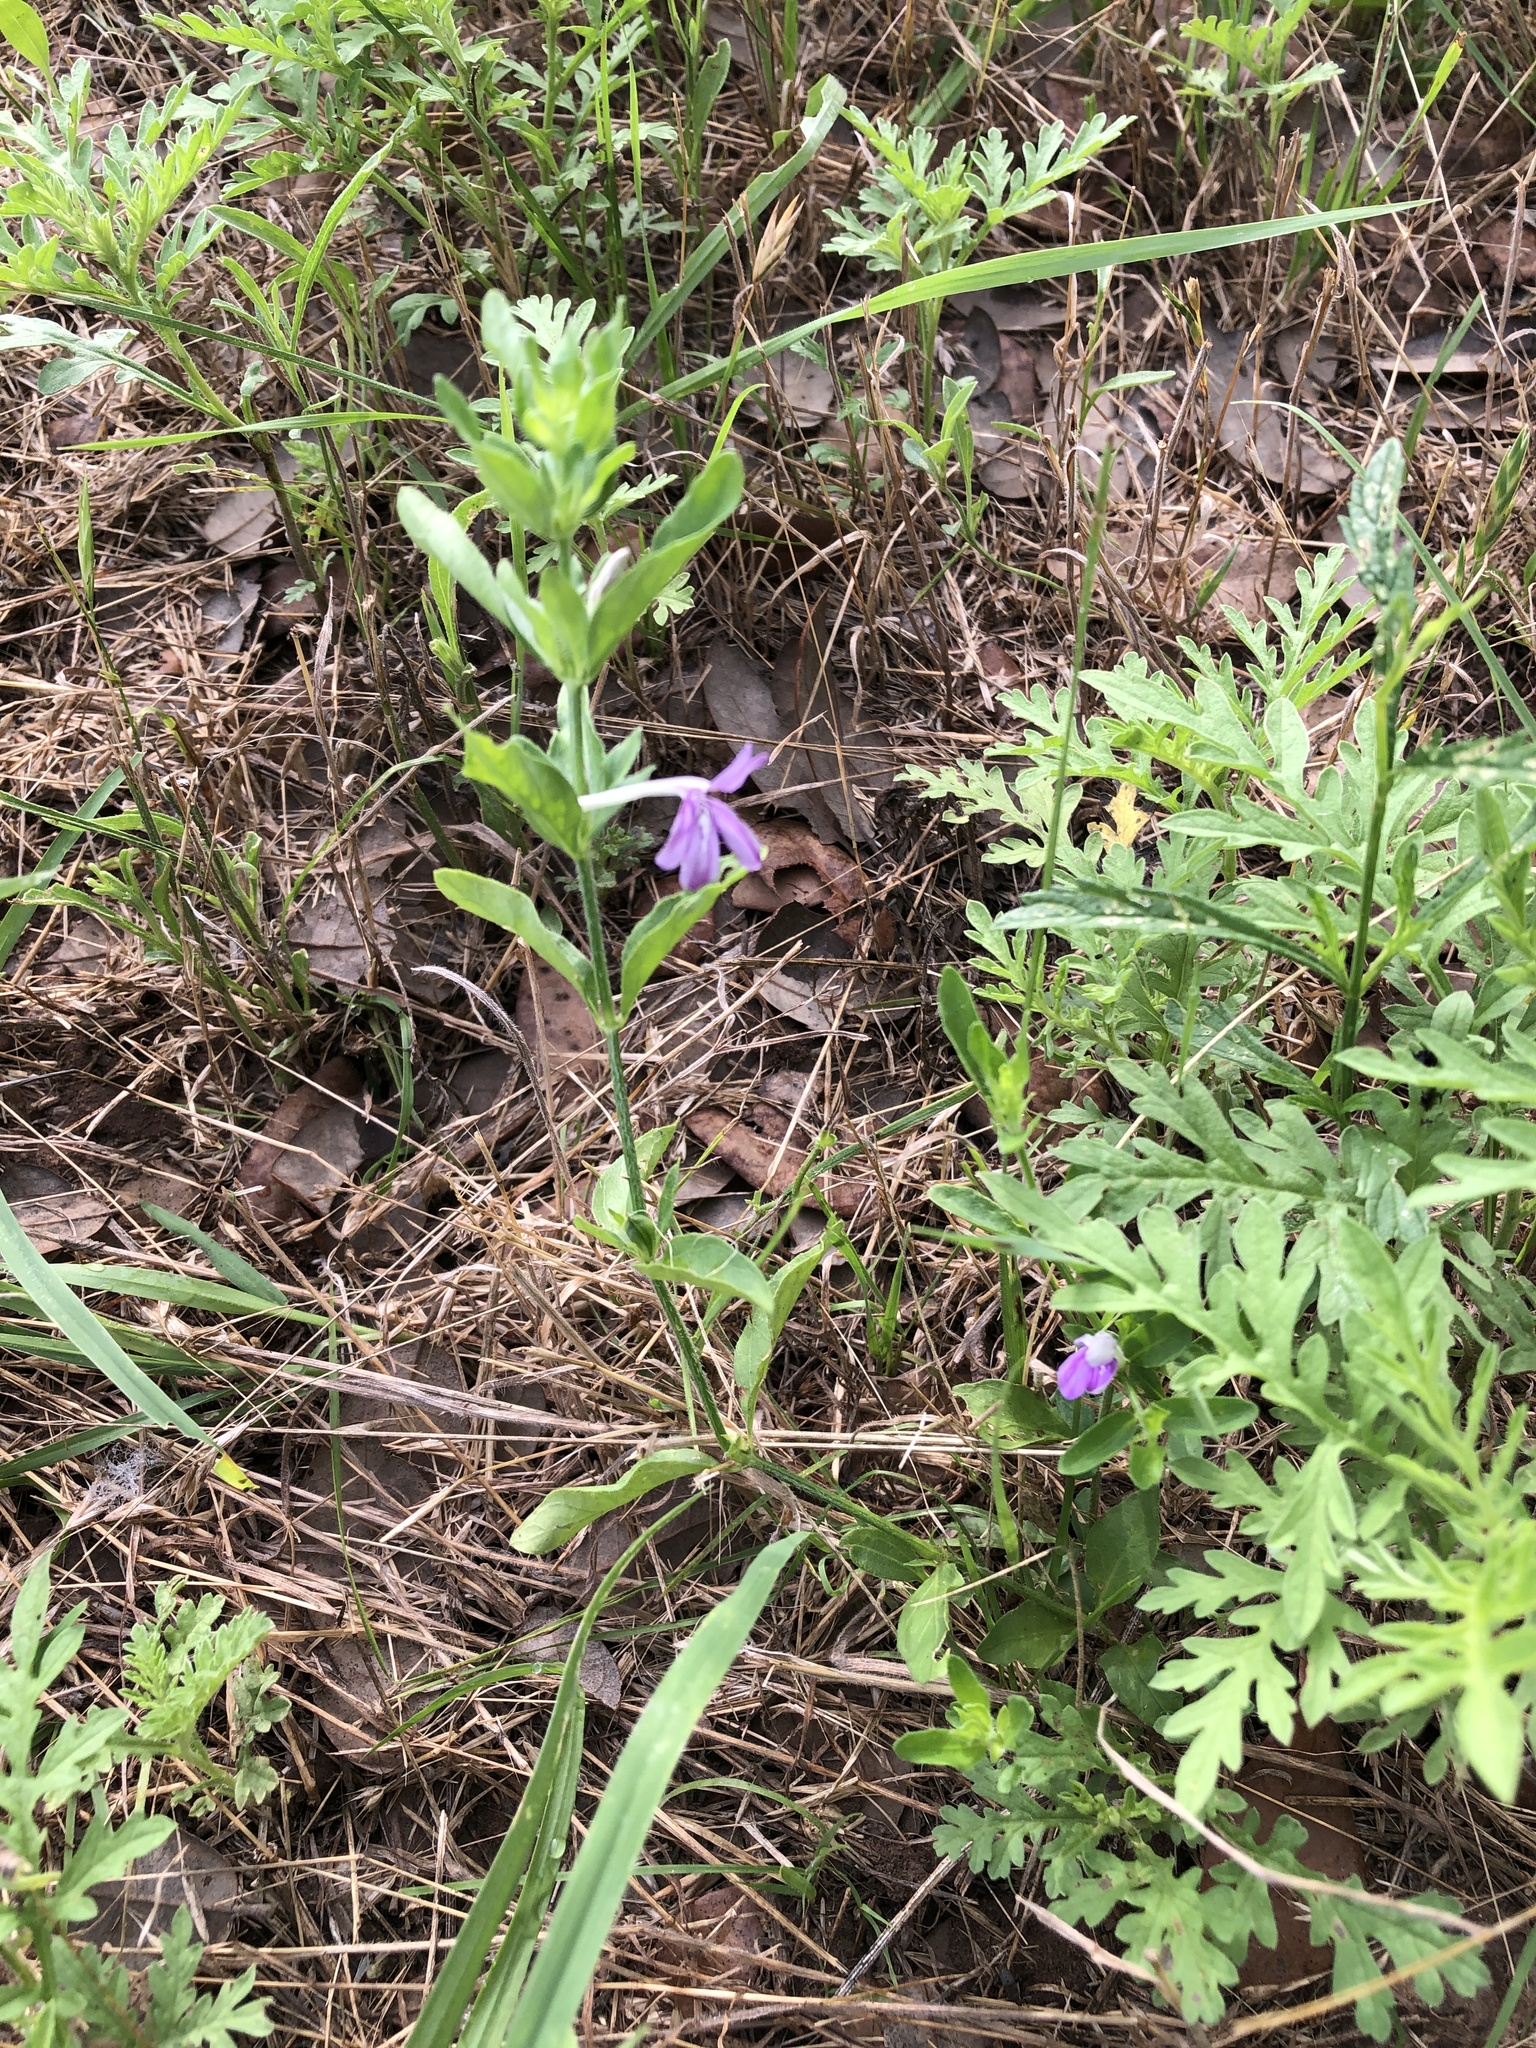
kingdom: Plantae
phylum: Tracheophyta
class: Magnoliopsida
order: Lamiales
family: Acanthaceae
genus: Justicia
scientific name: Justicia pilosella
